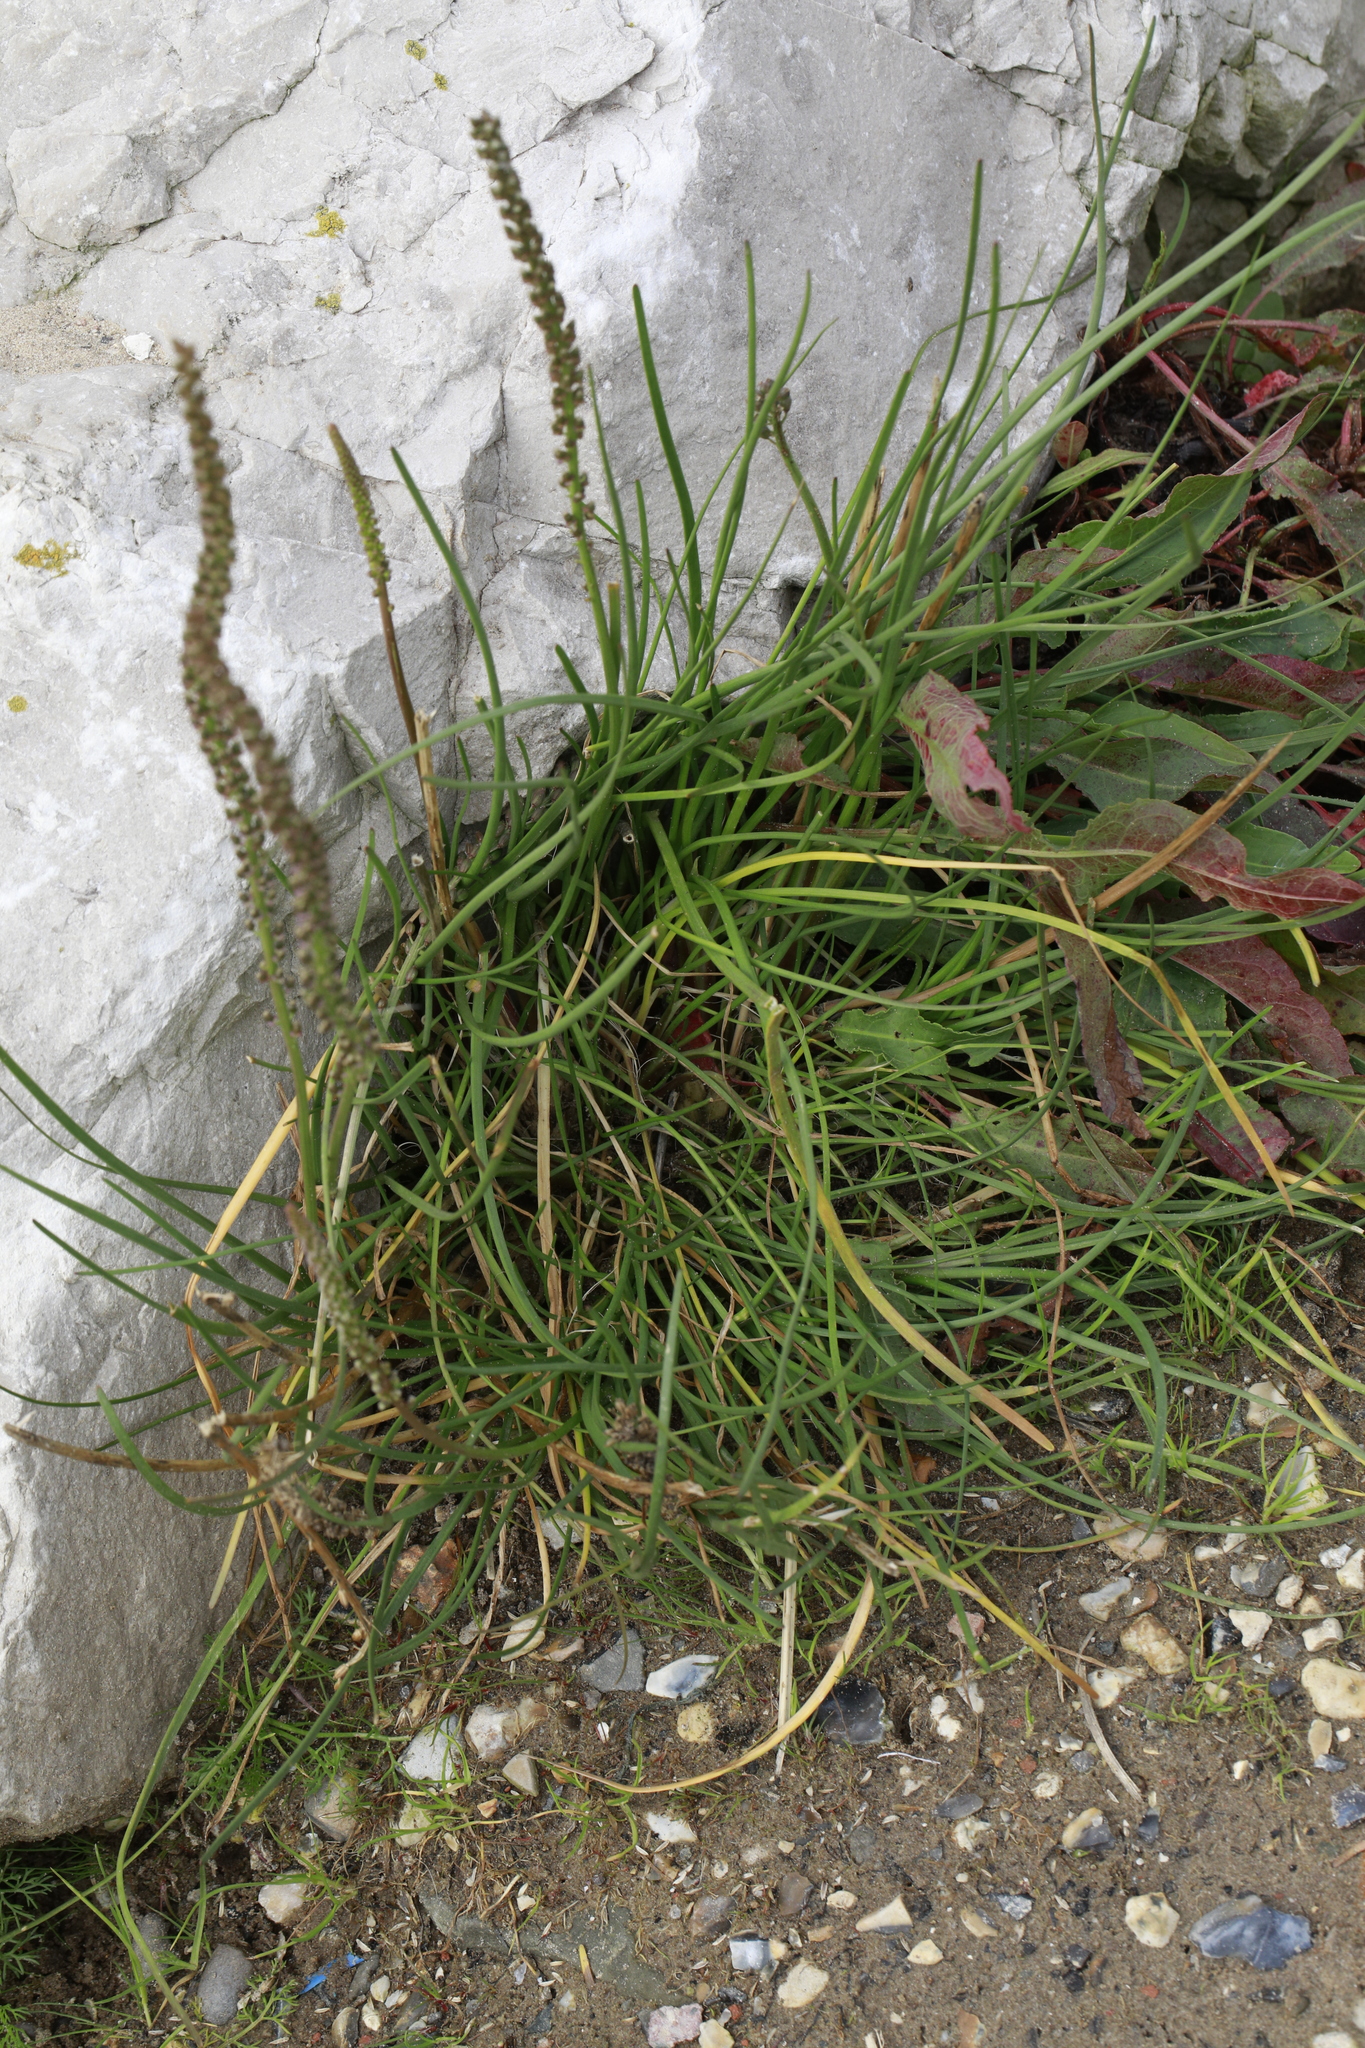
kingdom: Plantae
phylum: Tracheophyta
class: Liliopsida
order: Alismatales
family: Juncaginaceae
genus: Triglochin
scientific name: Triglochin maritima
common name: Sea arrowgrass
